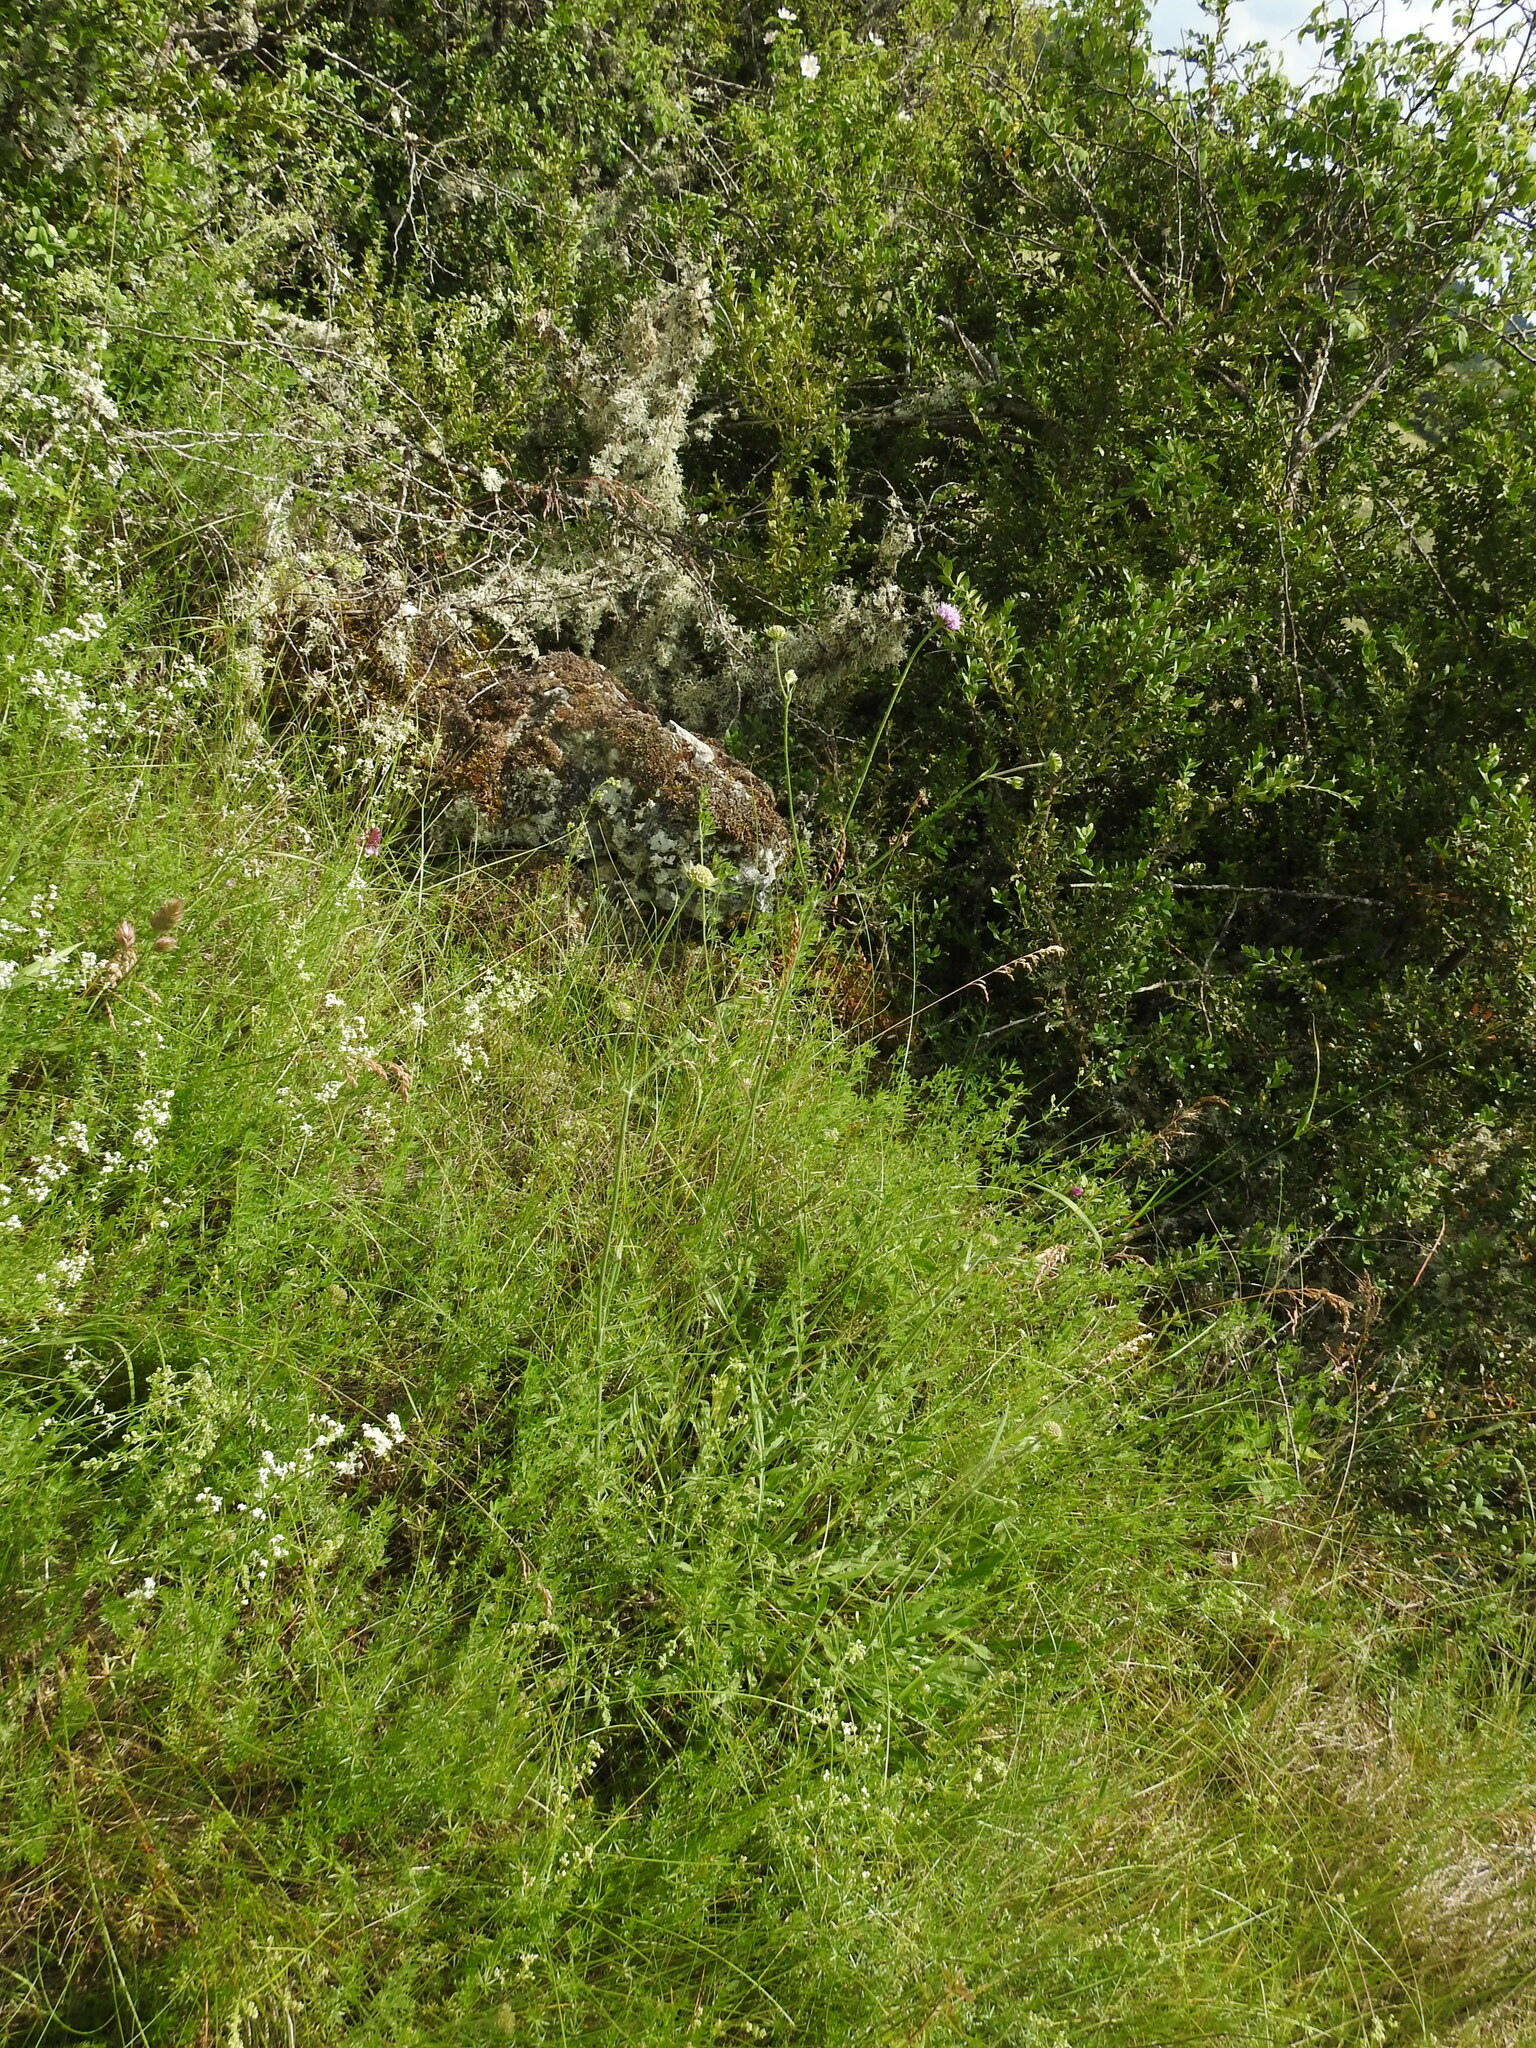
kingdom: Plantae
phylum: Tracheophyta
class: Magnoliopsida
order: Dipsacales
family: Caprifoliaceae
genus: Knautia
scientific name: Knautia arvensis
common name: Field scabiosa
